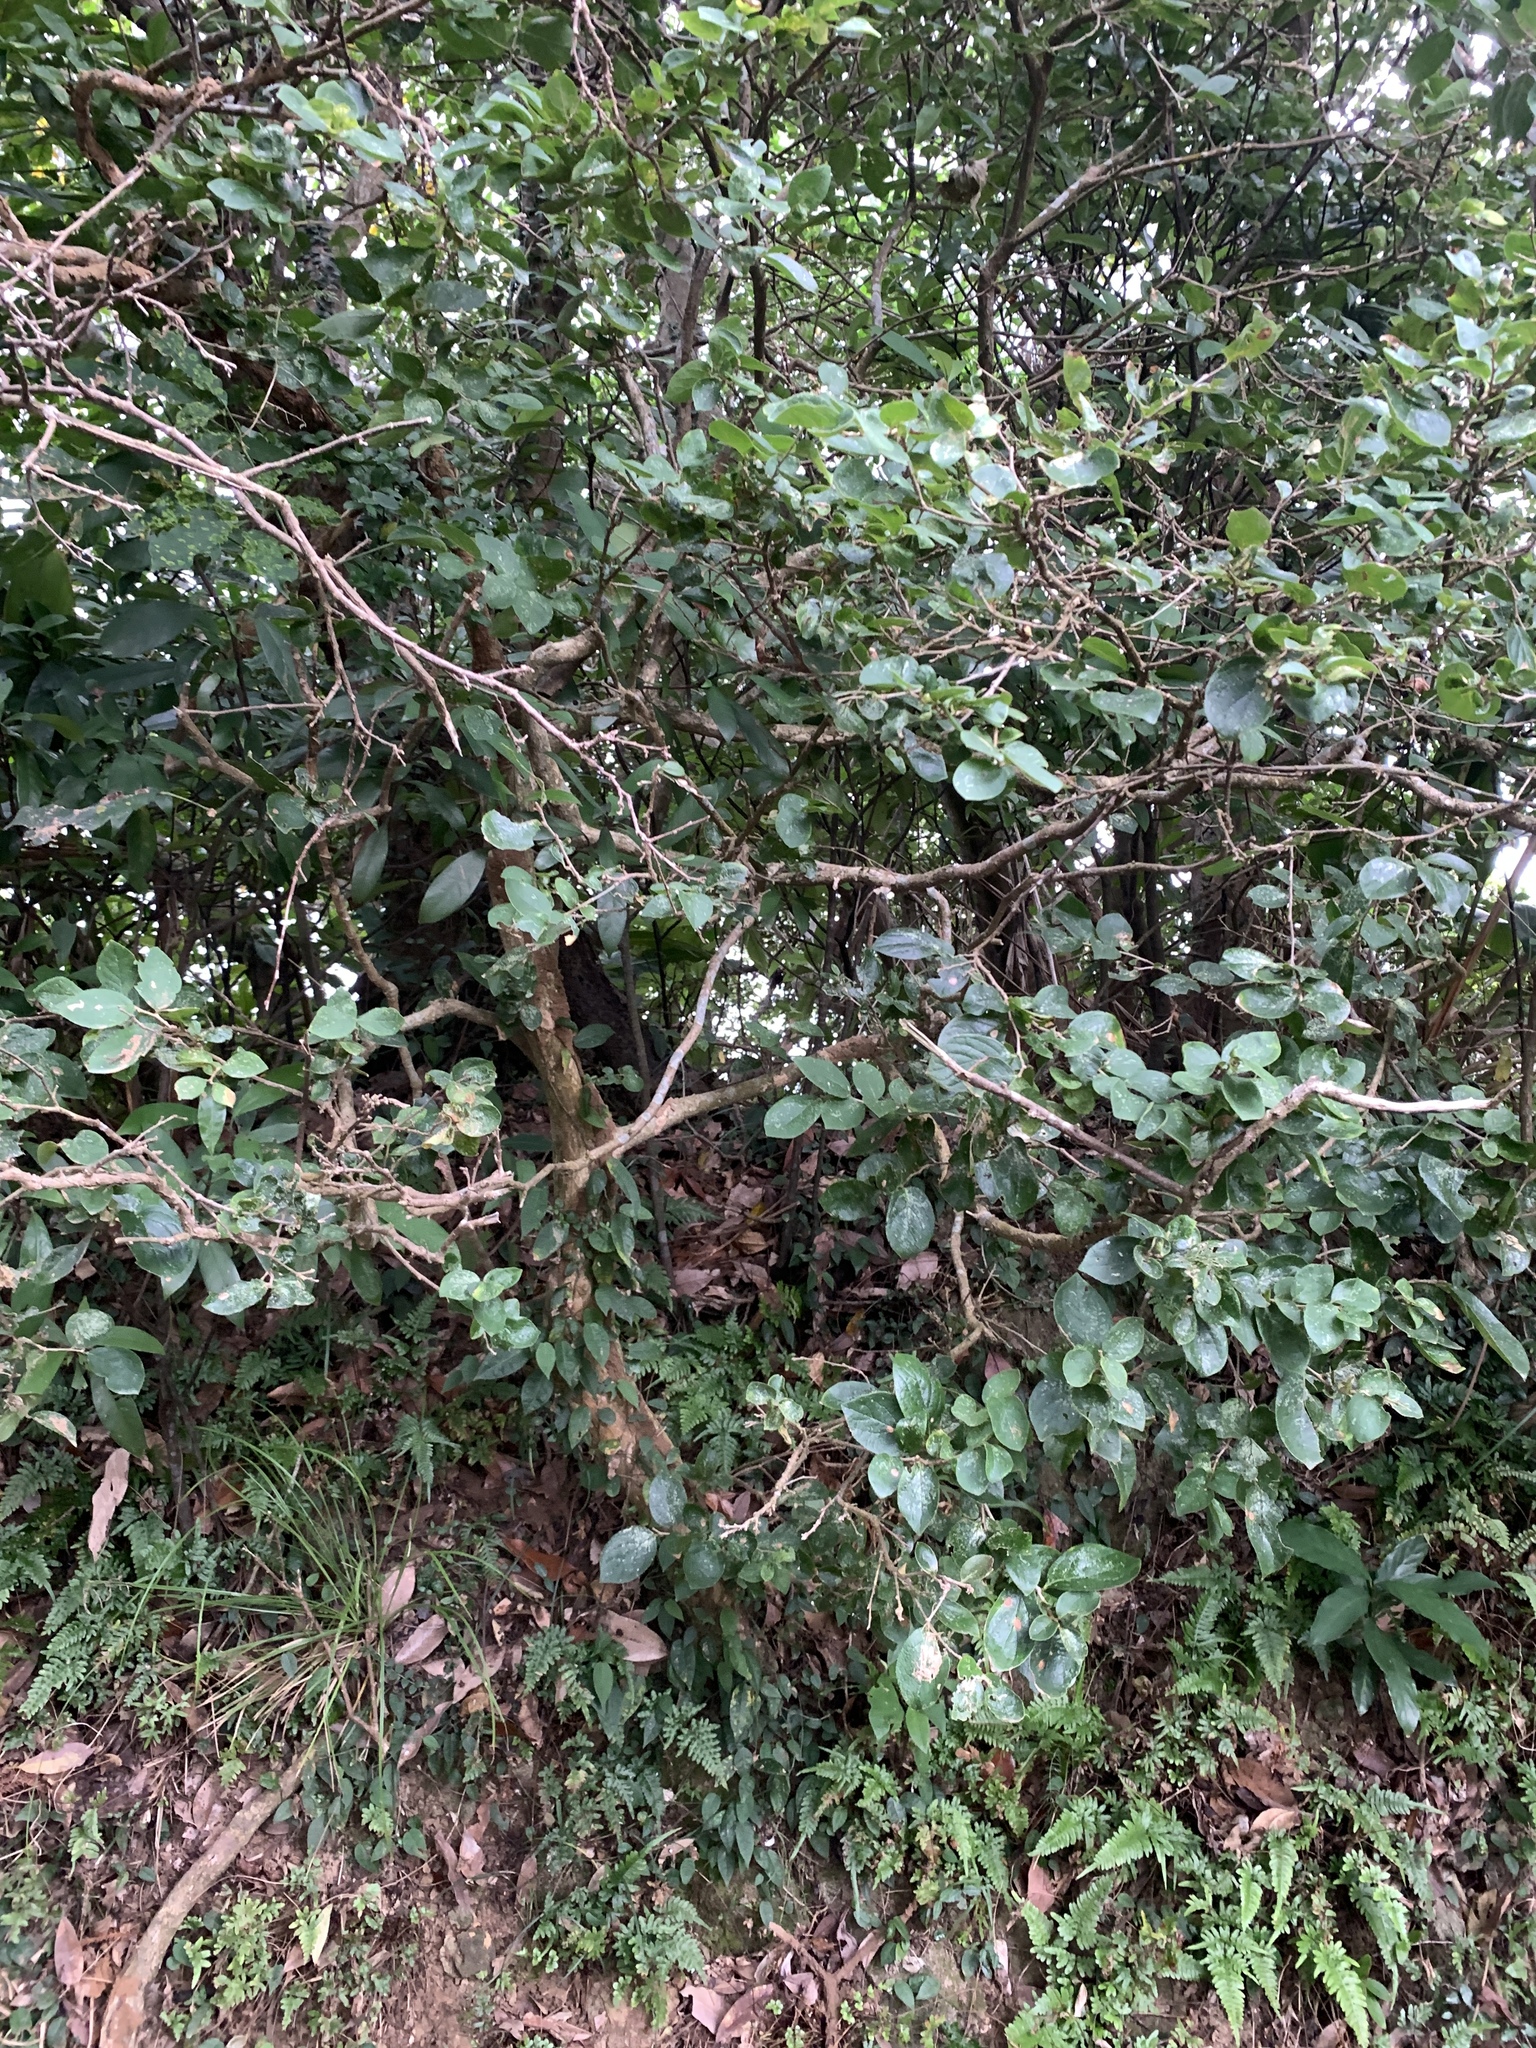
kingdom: Plantae
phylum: Tracheophyta
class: Magnoliopsida
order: Ericales
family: Symplocaceae
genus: Symplocos
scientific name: Symplocos paniculata
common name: Sapphire-berry
